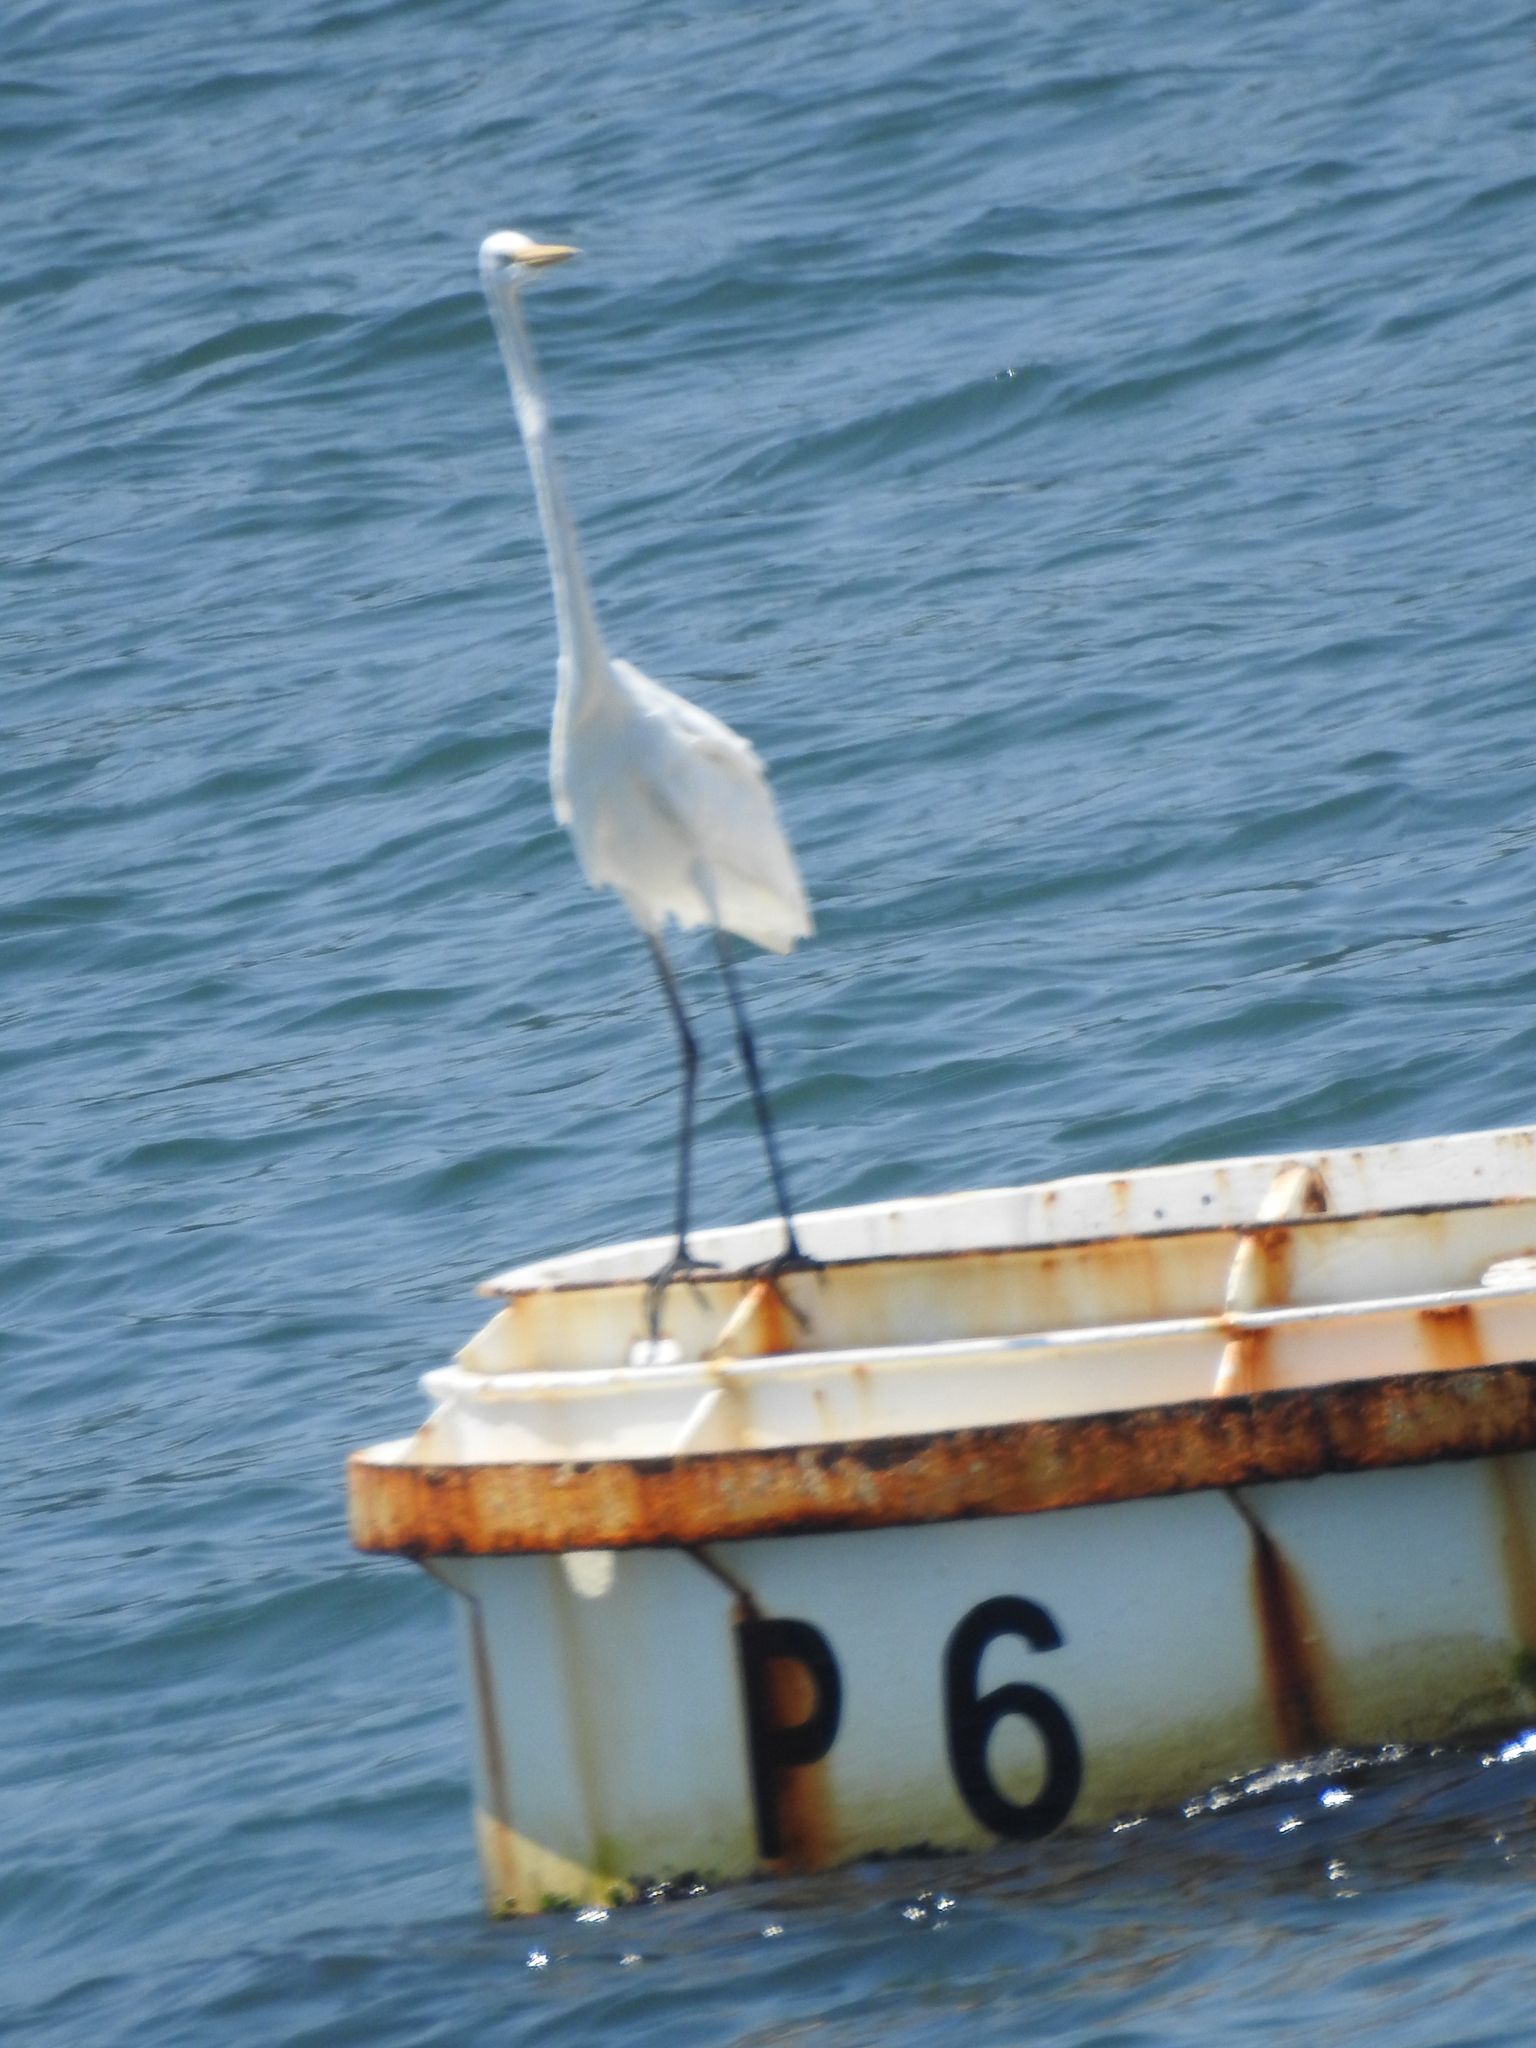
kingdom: Animalia
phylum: Chordata
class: Aves
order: Pelecaniformes
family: Ardeidae
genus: Ardea
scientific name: Ardea alba
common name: Great egret
